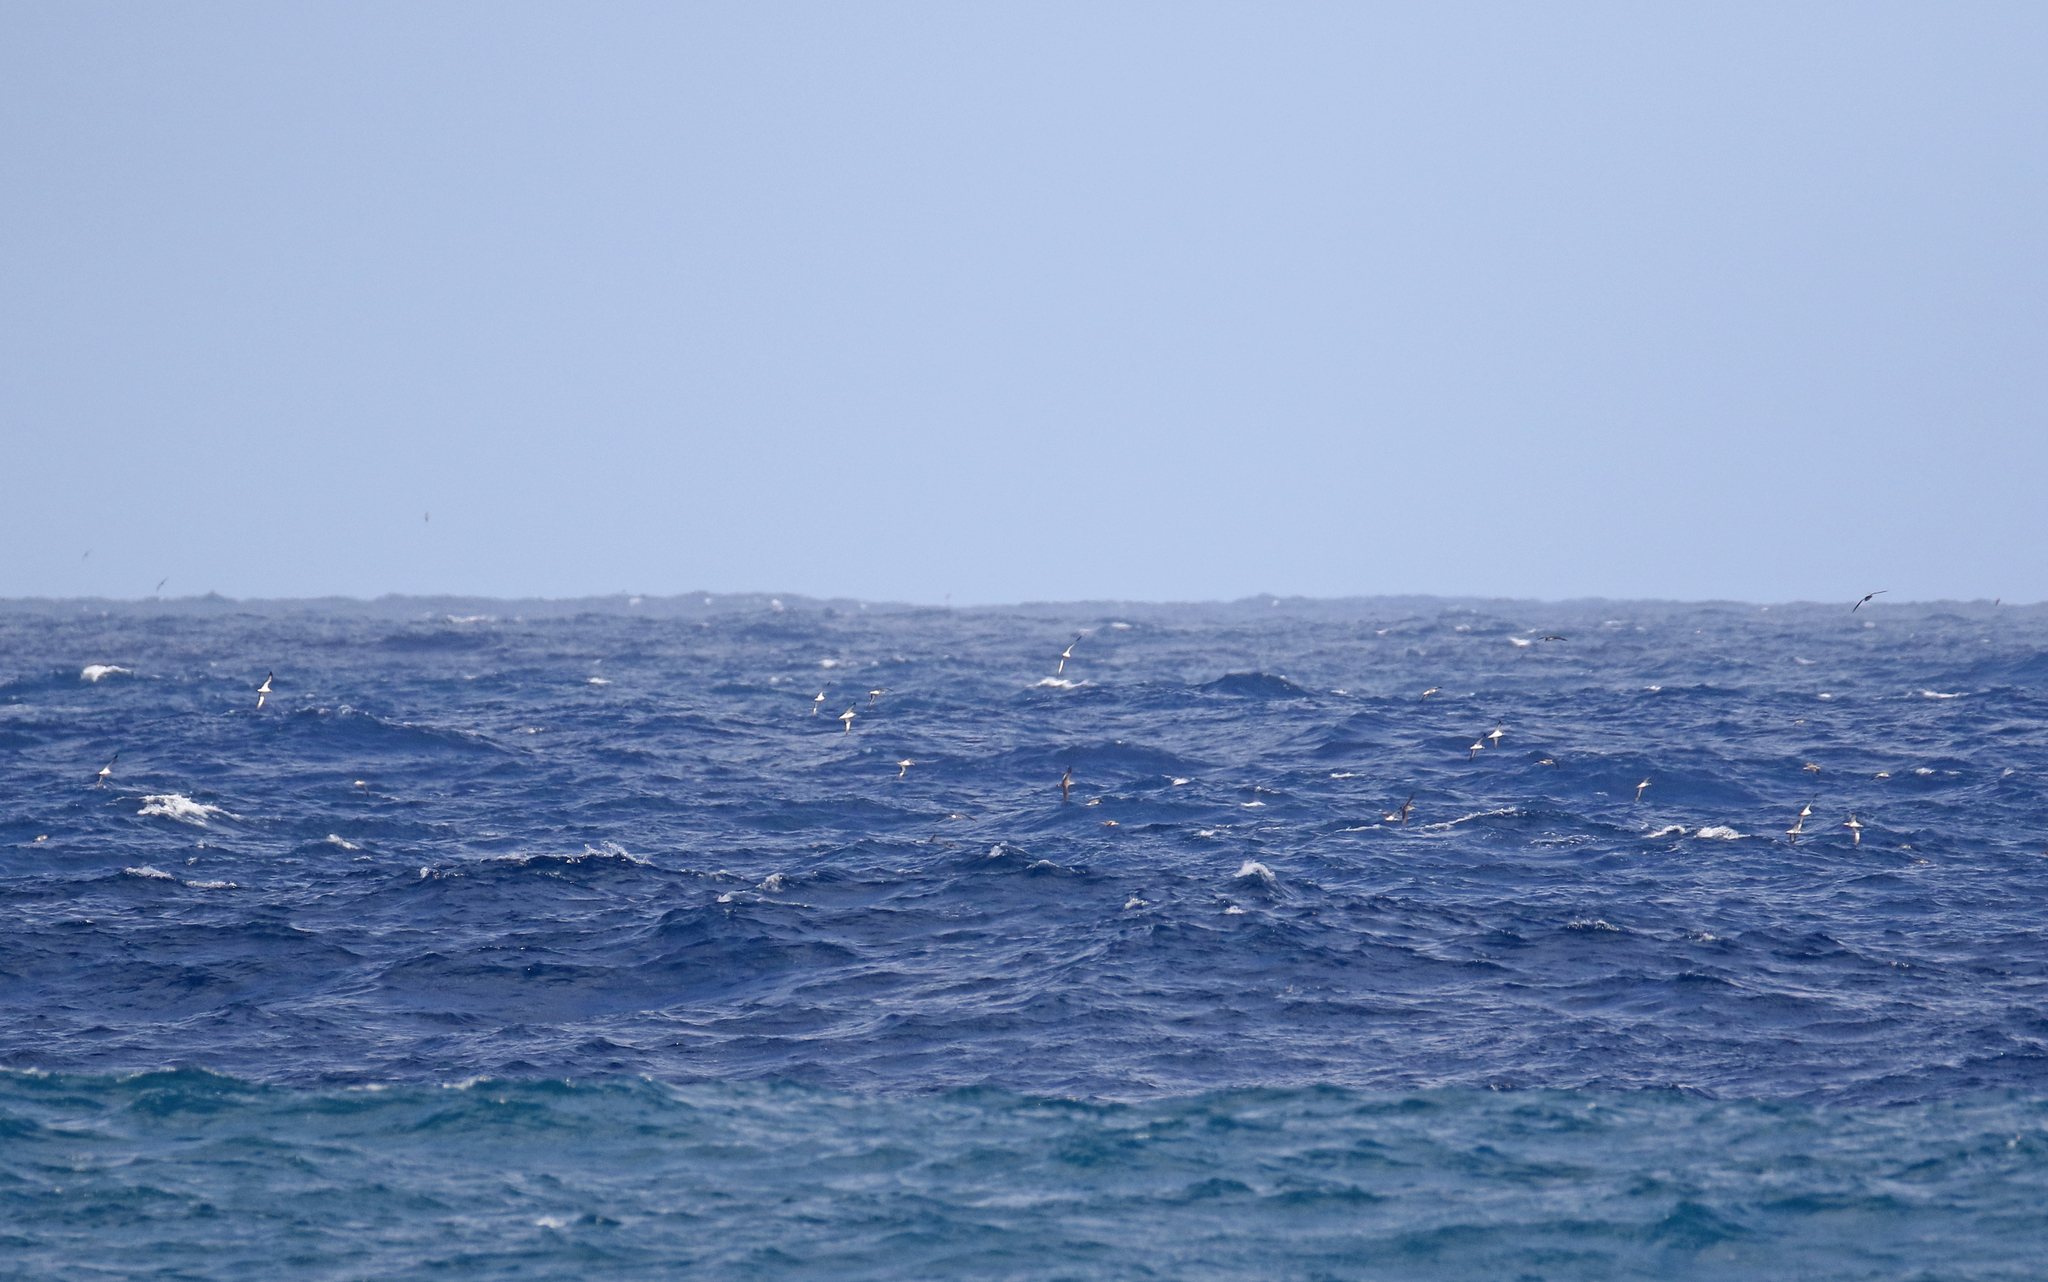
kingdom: Animalia
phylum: Chordata
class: Aves
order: Procellariiformes
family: Procellariidae
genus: Calonectris
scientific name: Calonectris diomedea
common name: Cory's shearwater
